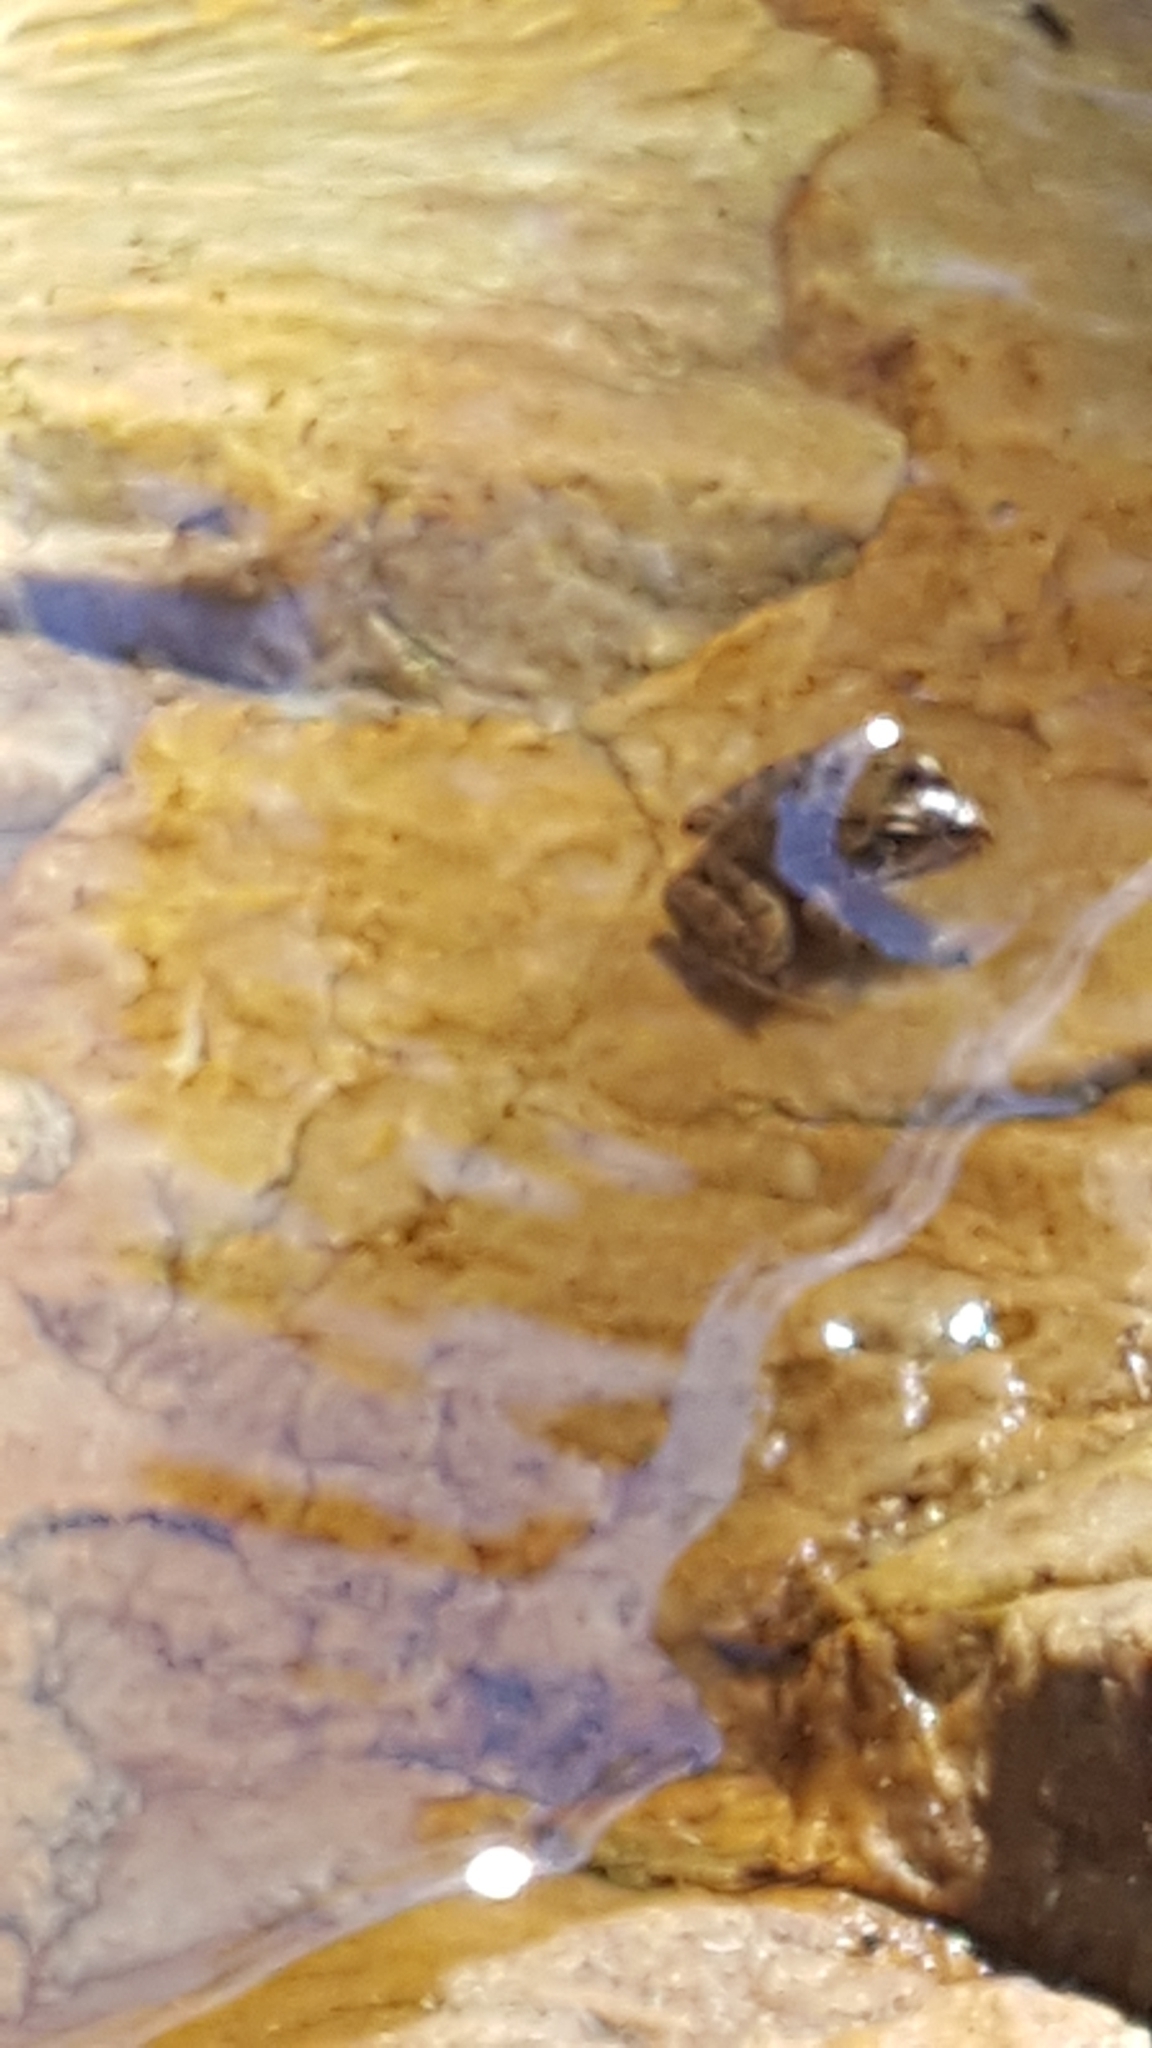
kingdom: Animalia
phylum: Chordata
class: Amphibia
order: Anura
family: Pyxicephalidae
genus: Amietia
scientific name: Amietia delalandii
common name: Delalande's river frog
